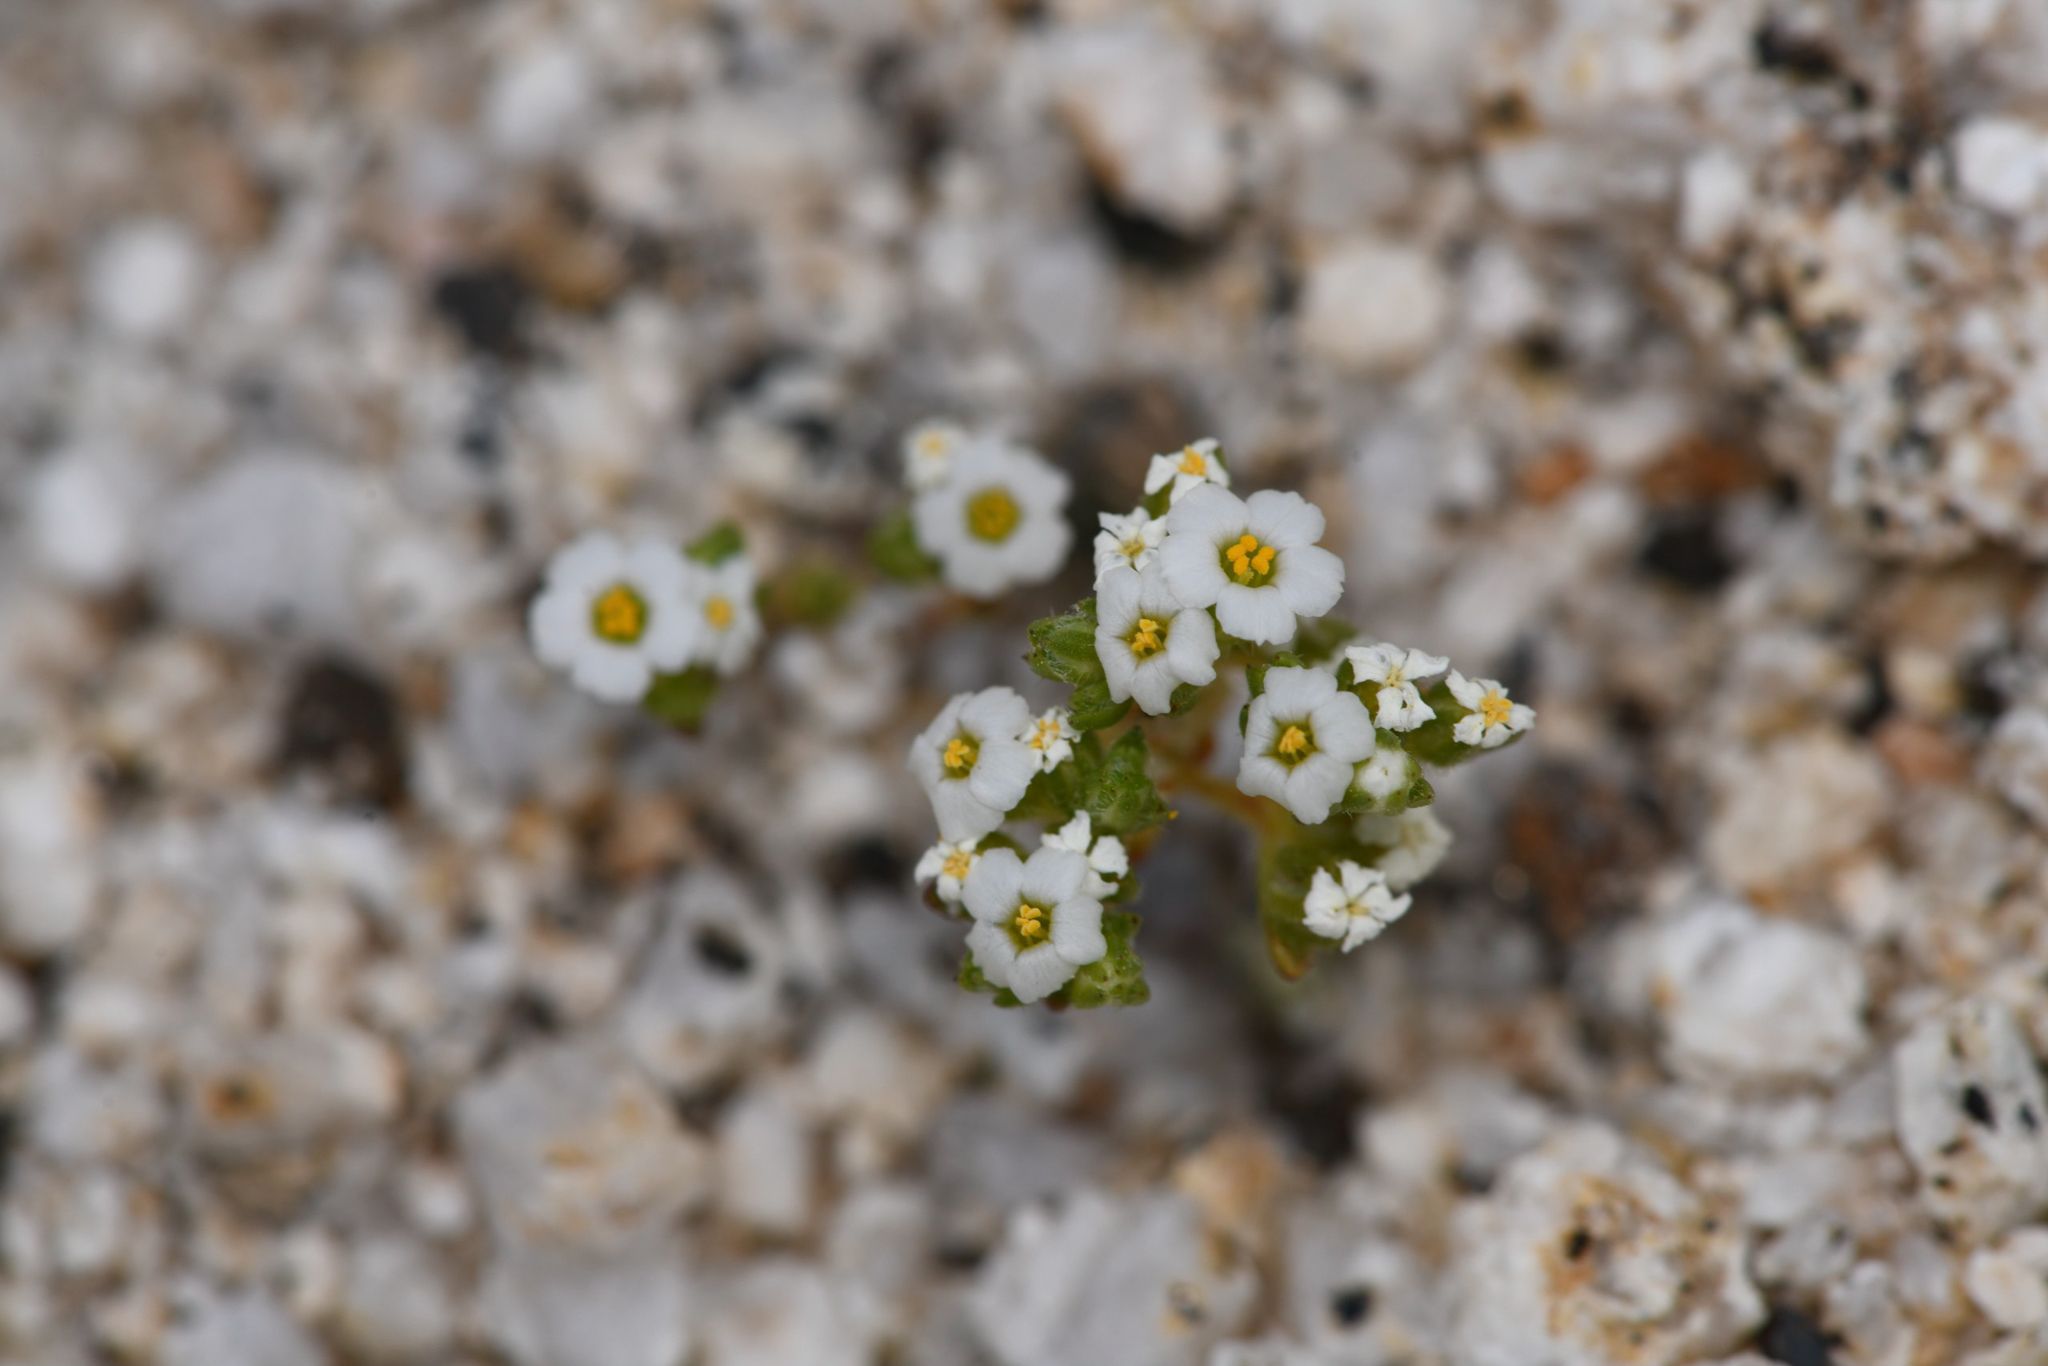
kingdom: Plantae
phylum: Tracheophyta
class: Magnoliopsida
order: Ericales
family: Polemoniaceae
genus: Maculigilia
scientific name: Maculigilia maculata
